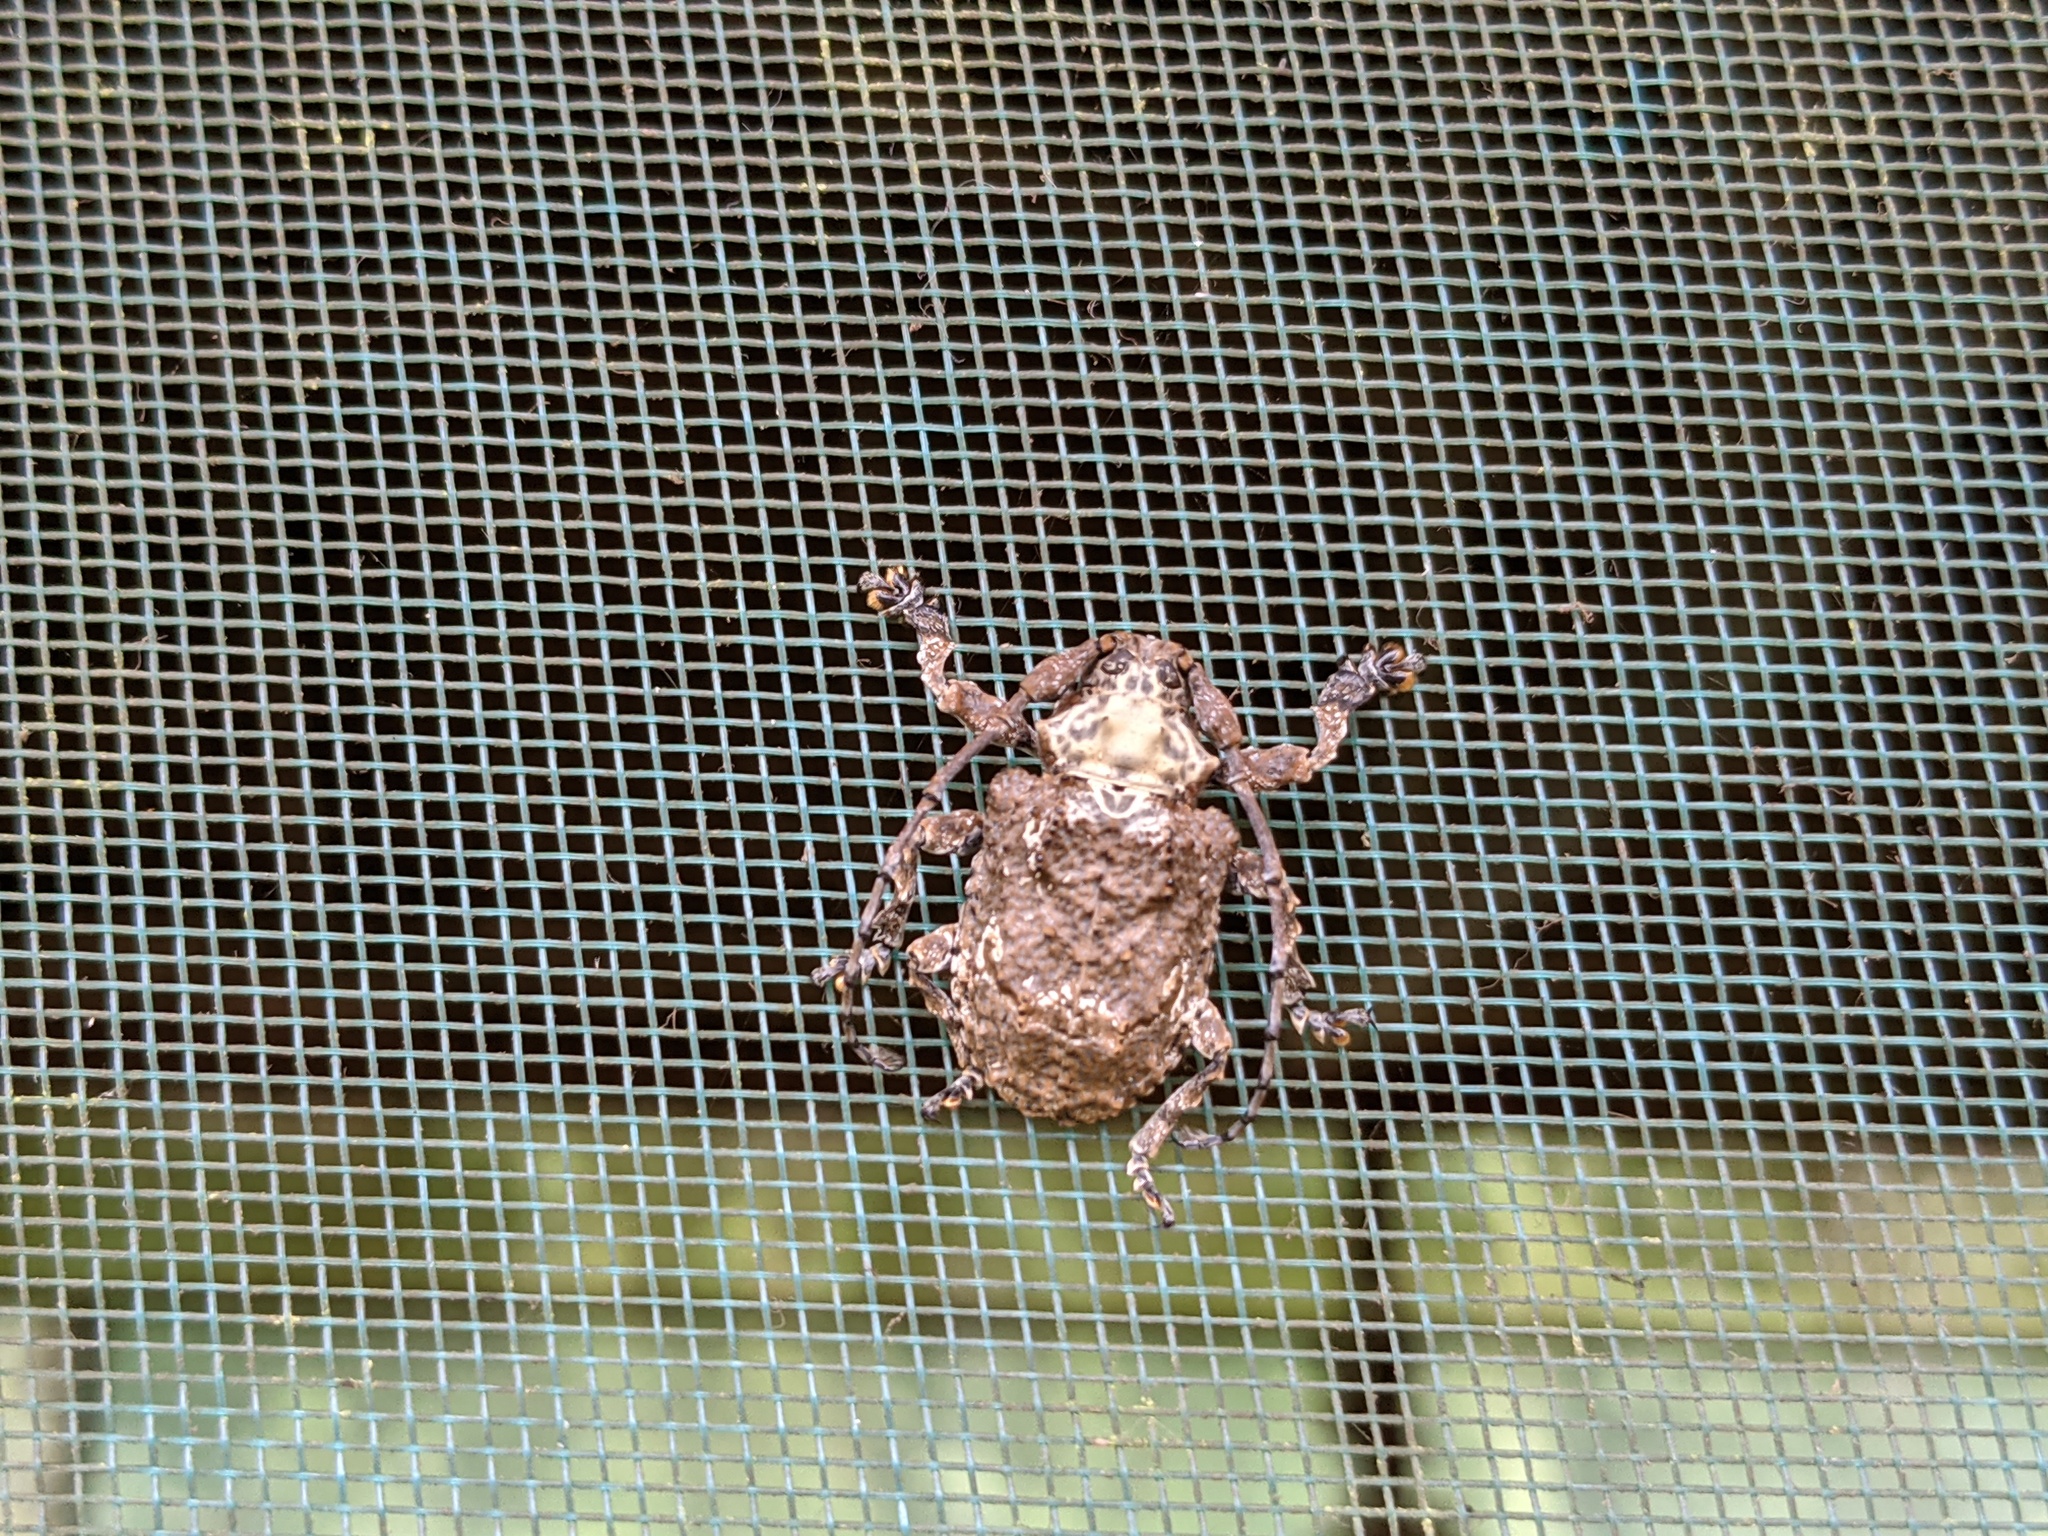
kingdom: Animalia
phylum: Arthropoda
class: Insecta
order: Coleoptera
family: Cerambycidae
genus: Onychocerus
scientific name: Onychocerus crassus
